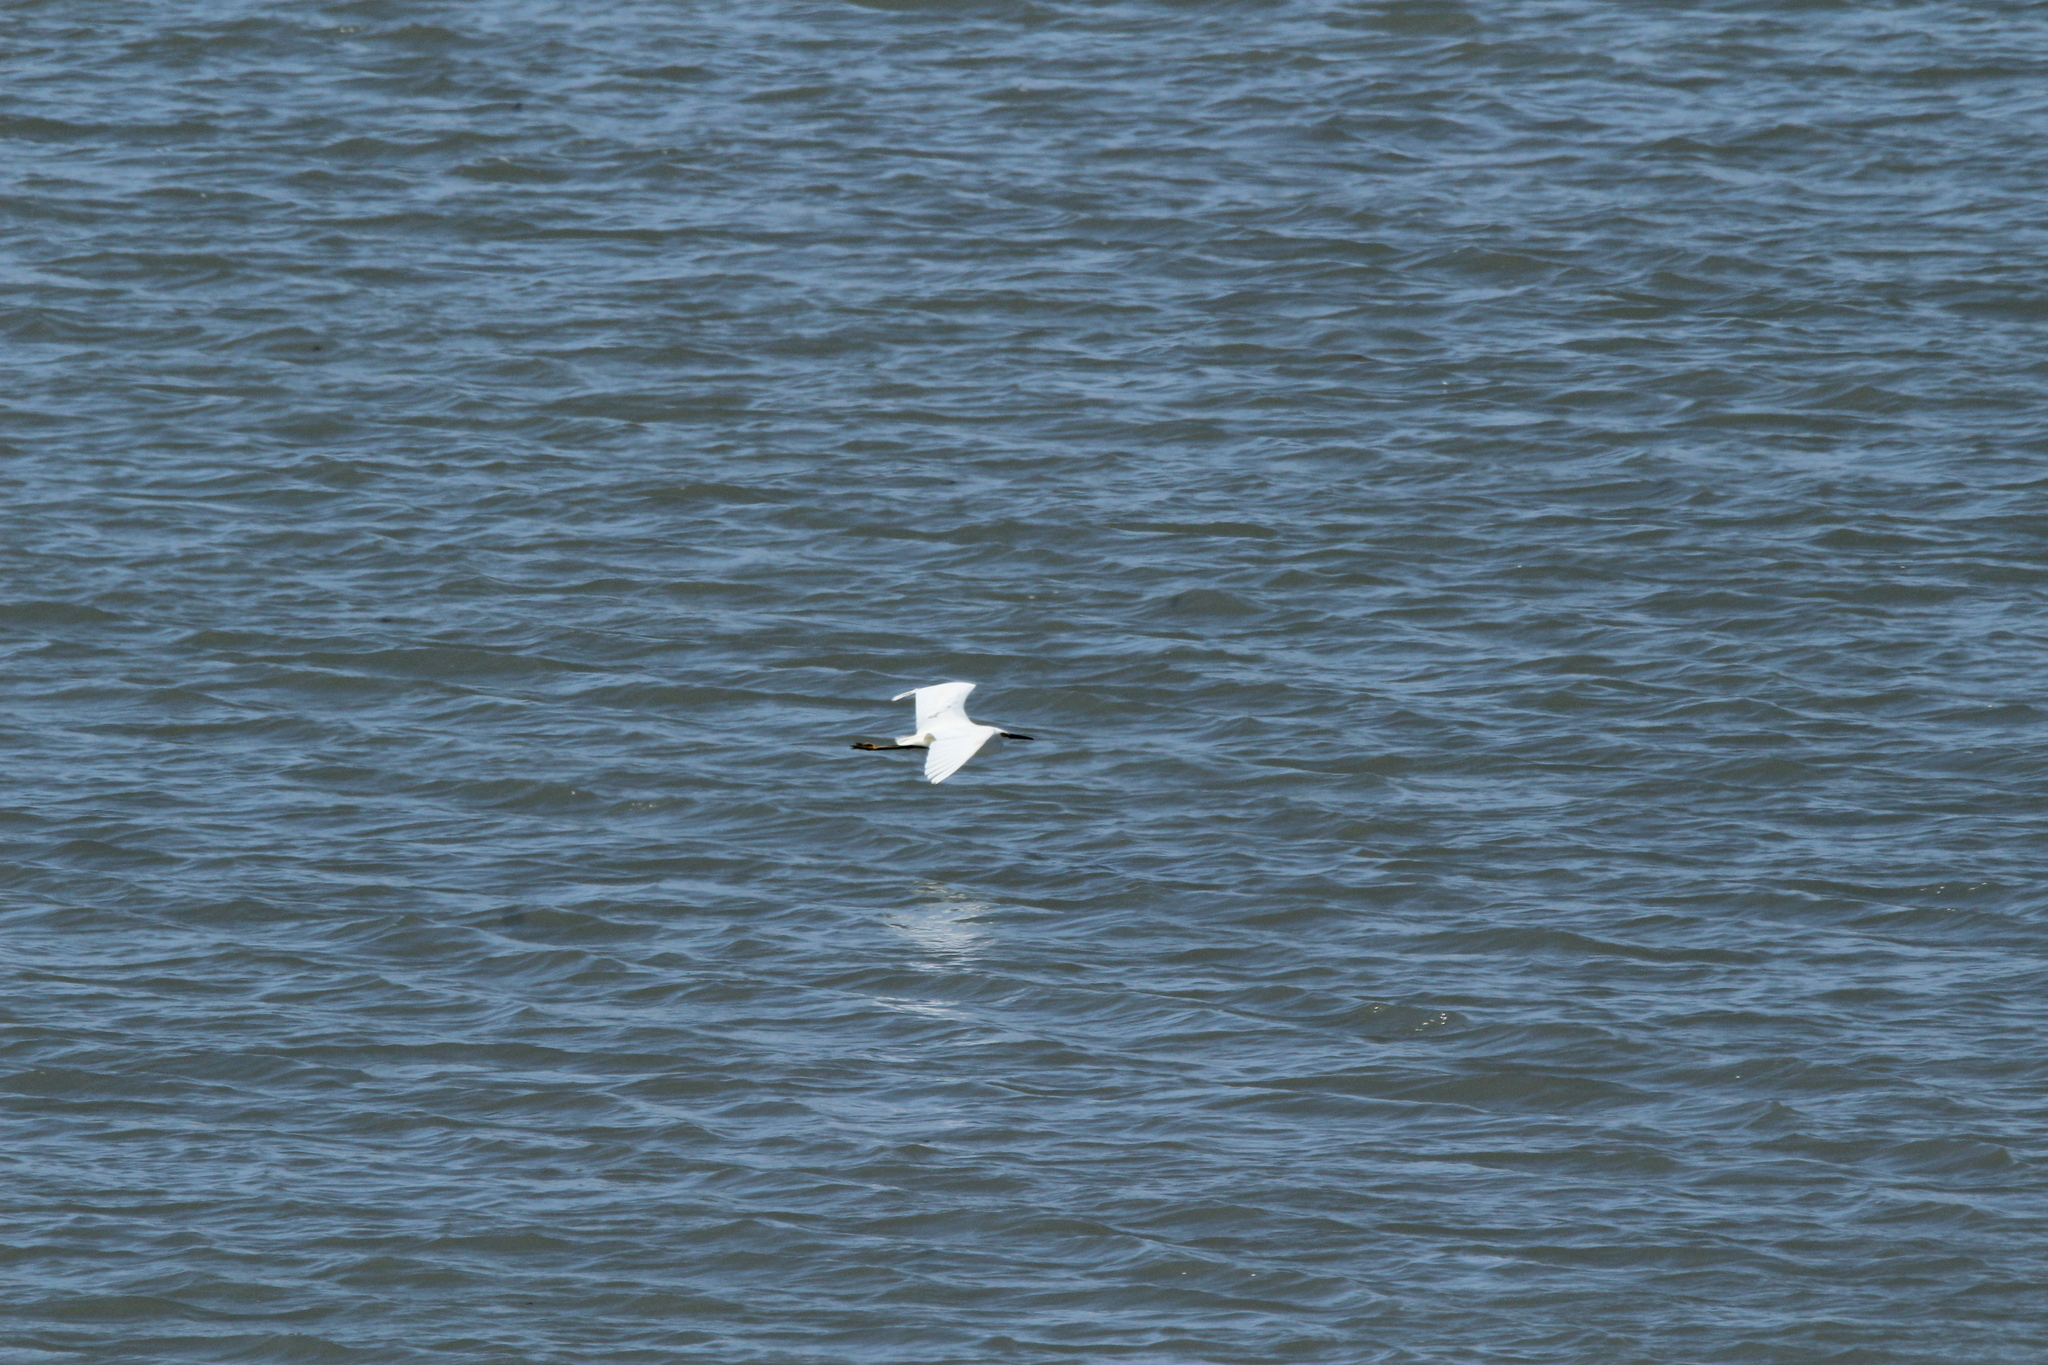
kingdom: Animalia
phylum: Chordata
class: Aves
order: Pelecaniformes
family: Ardeidae
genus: Egretta
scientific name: Egretta thula
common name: Snowy egret
